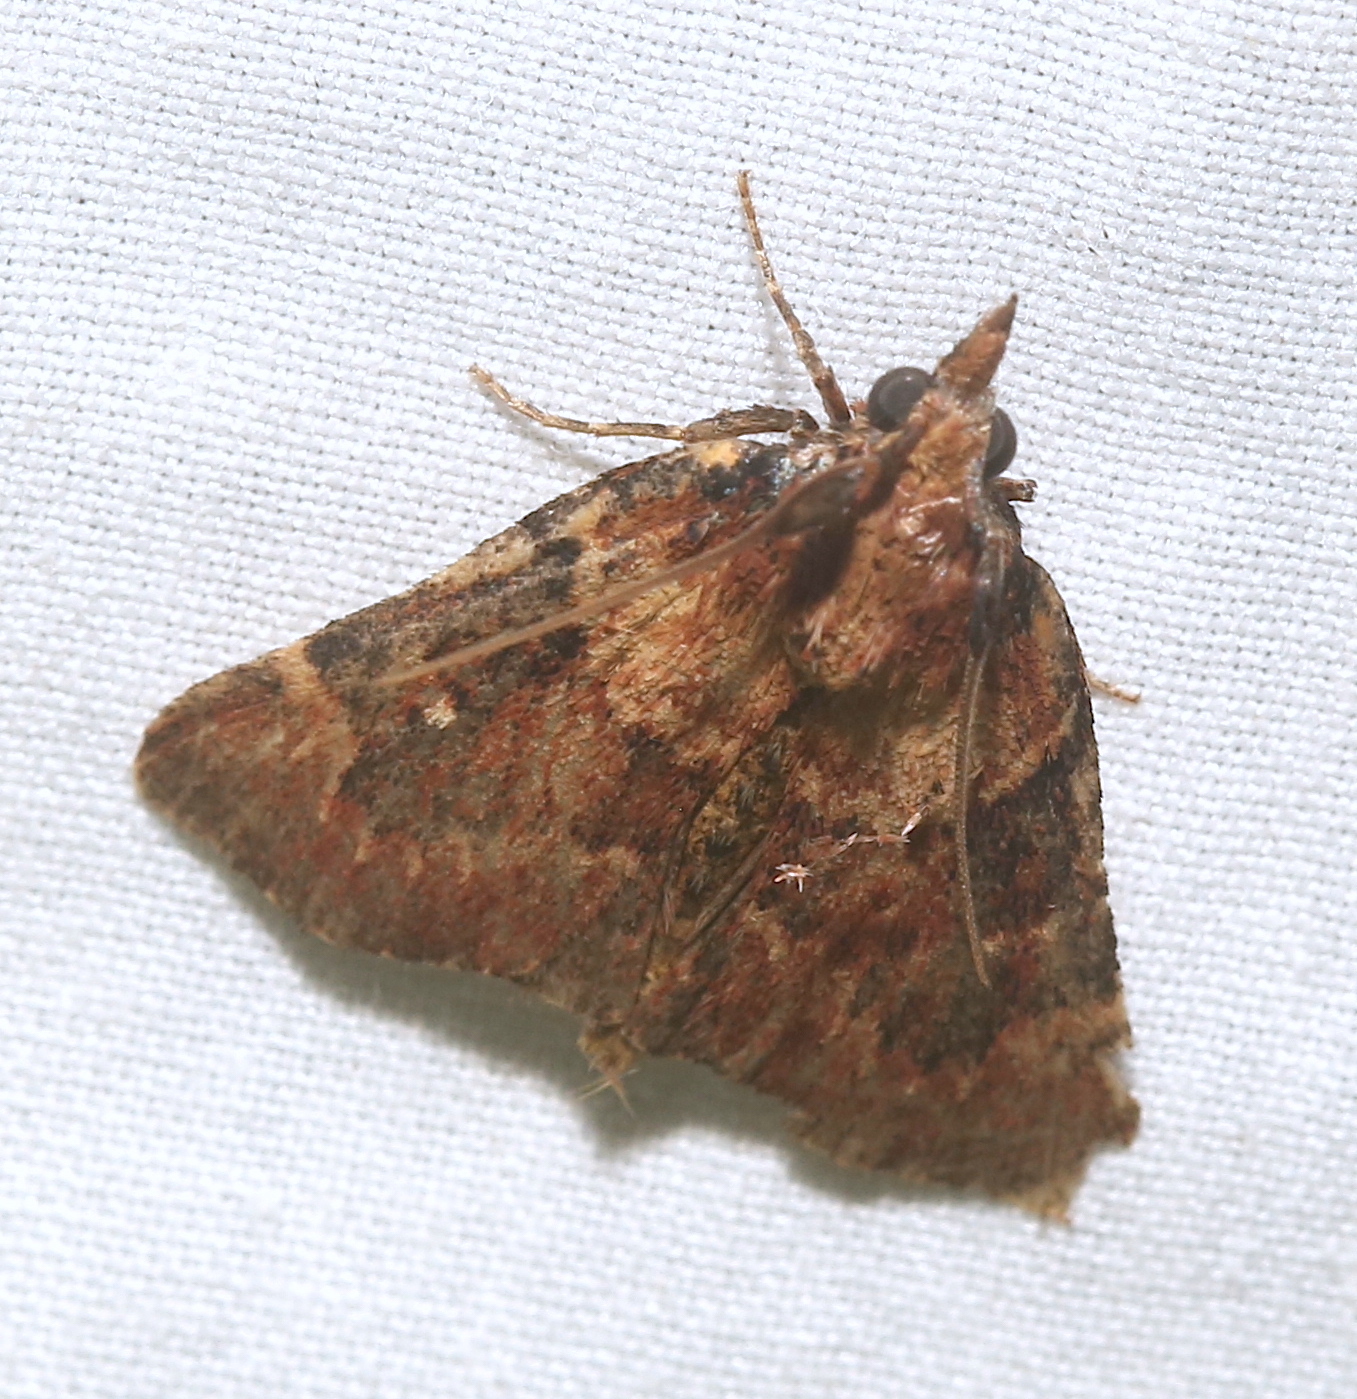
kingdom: Animalia
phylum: Arthropoda
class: Insecta
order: Lepidoptera
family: Pyralidae
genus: Omphalocera
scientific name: Omphalocera munroei
